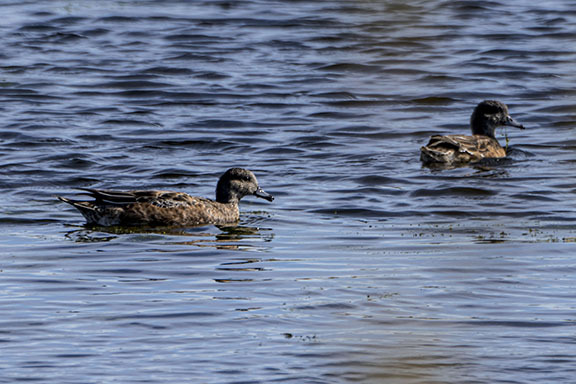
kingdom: Animalia
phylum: Chordata
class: Aves
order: Anseriformes
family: Anatidae
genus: Mareca
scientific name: Mareca americana
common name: American wigeon
